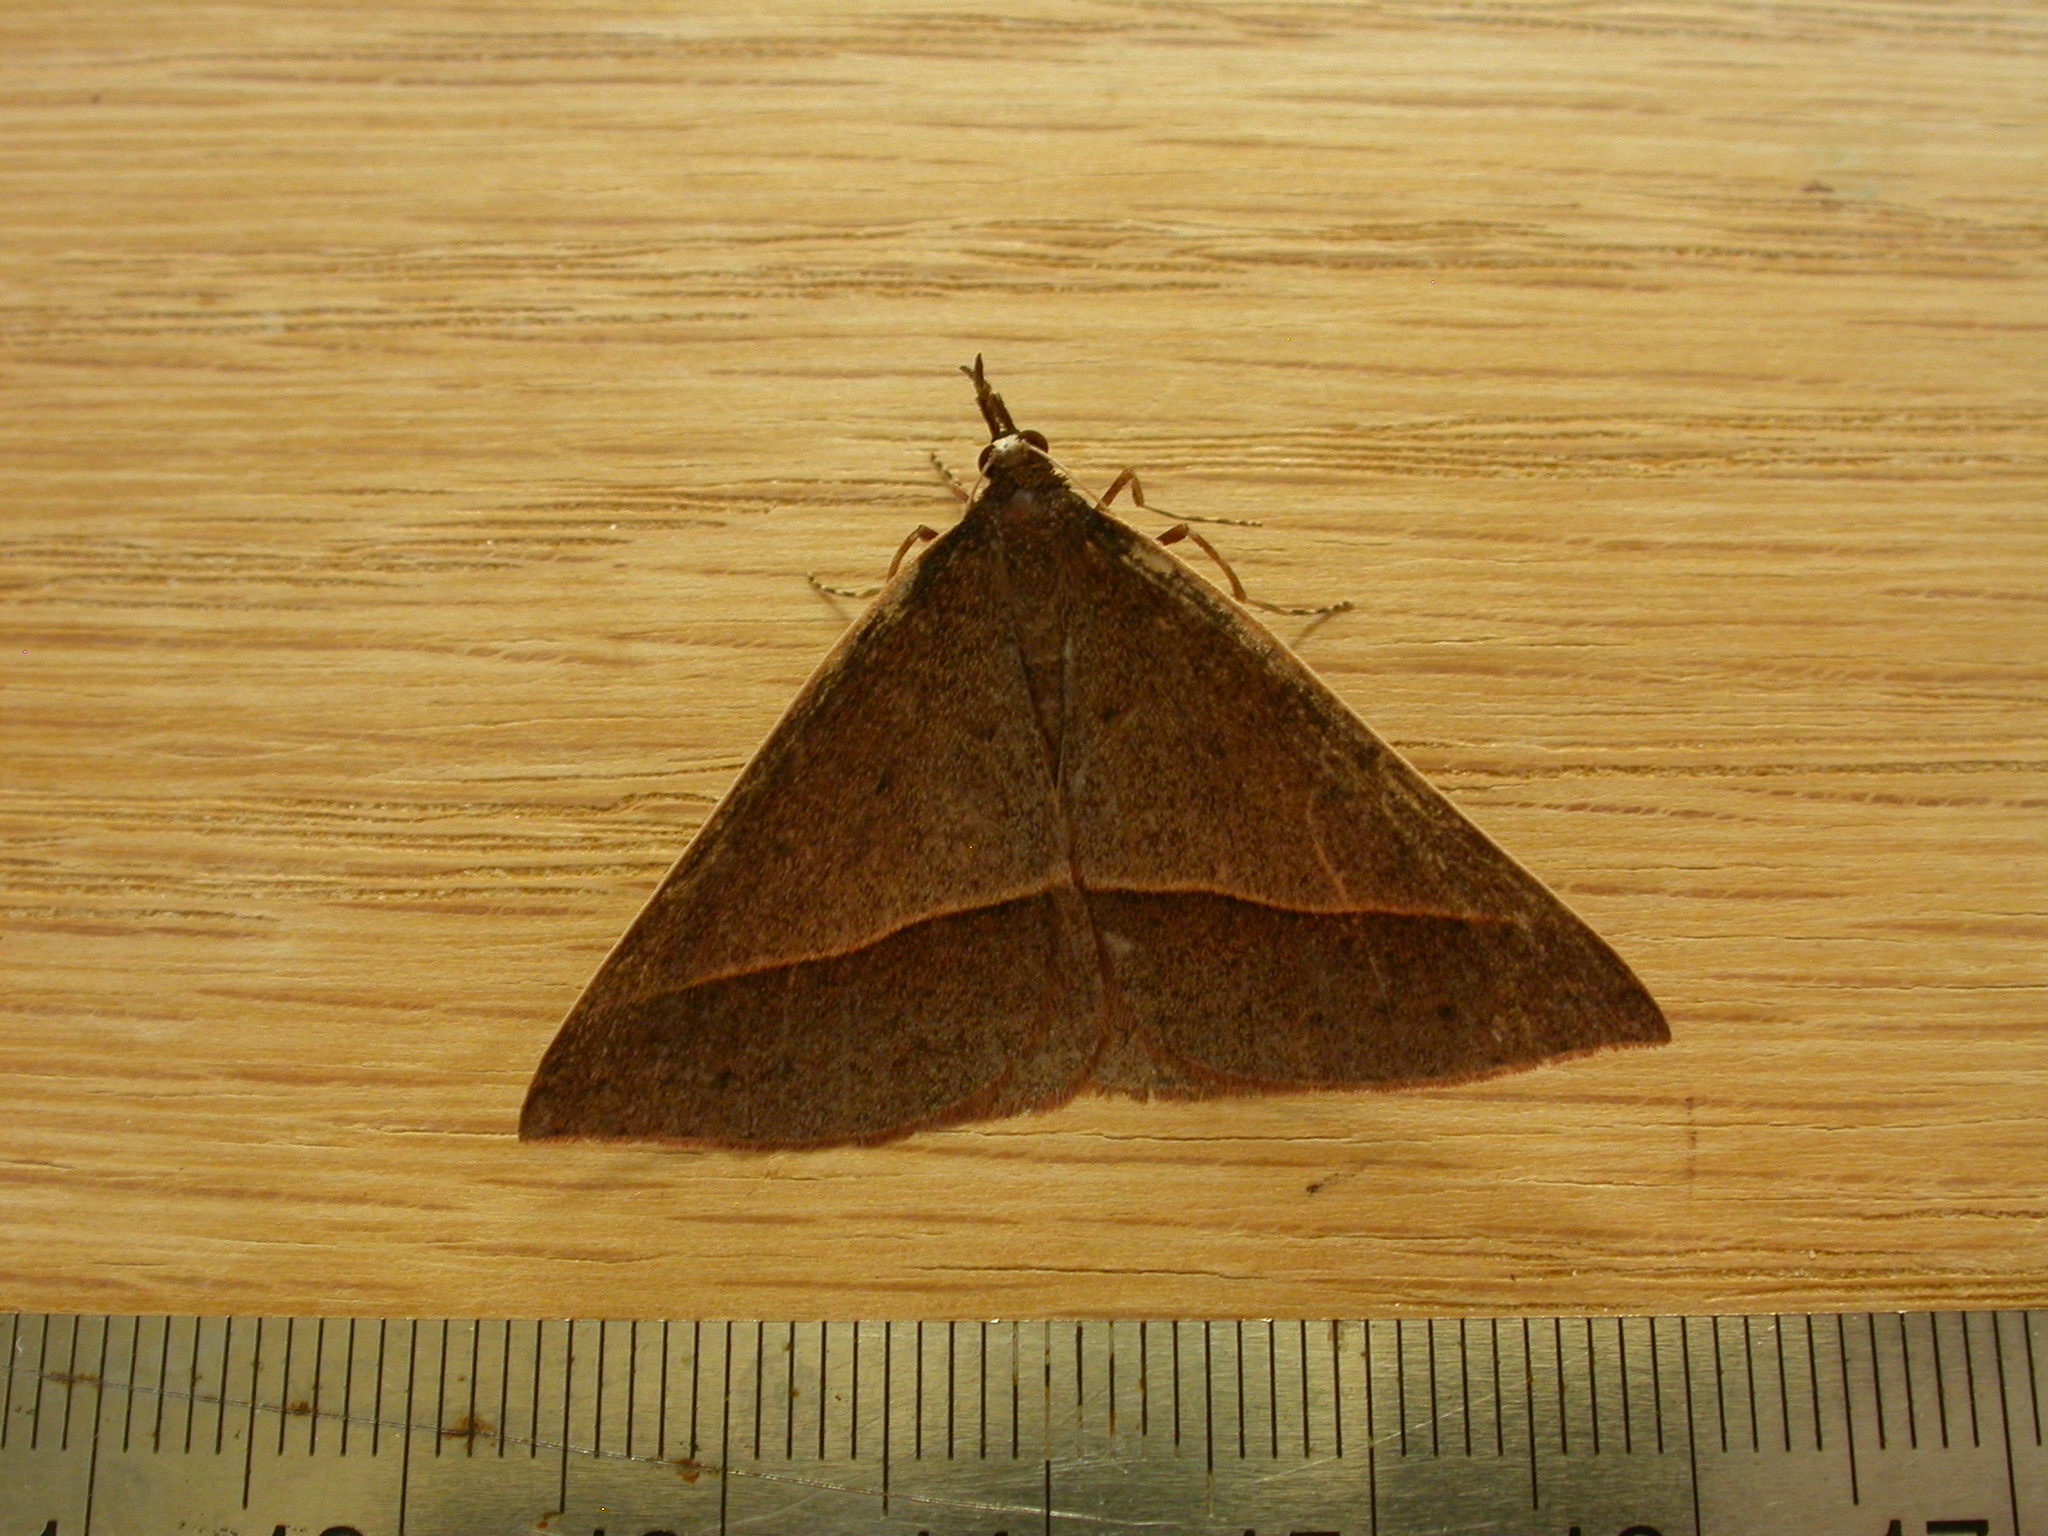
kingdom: Animalia
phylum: Arthropoda
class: Insecta
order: Lepidoptera
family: Geometridae
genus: Epidesmia
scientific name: Epidesmia chilonaria
